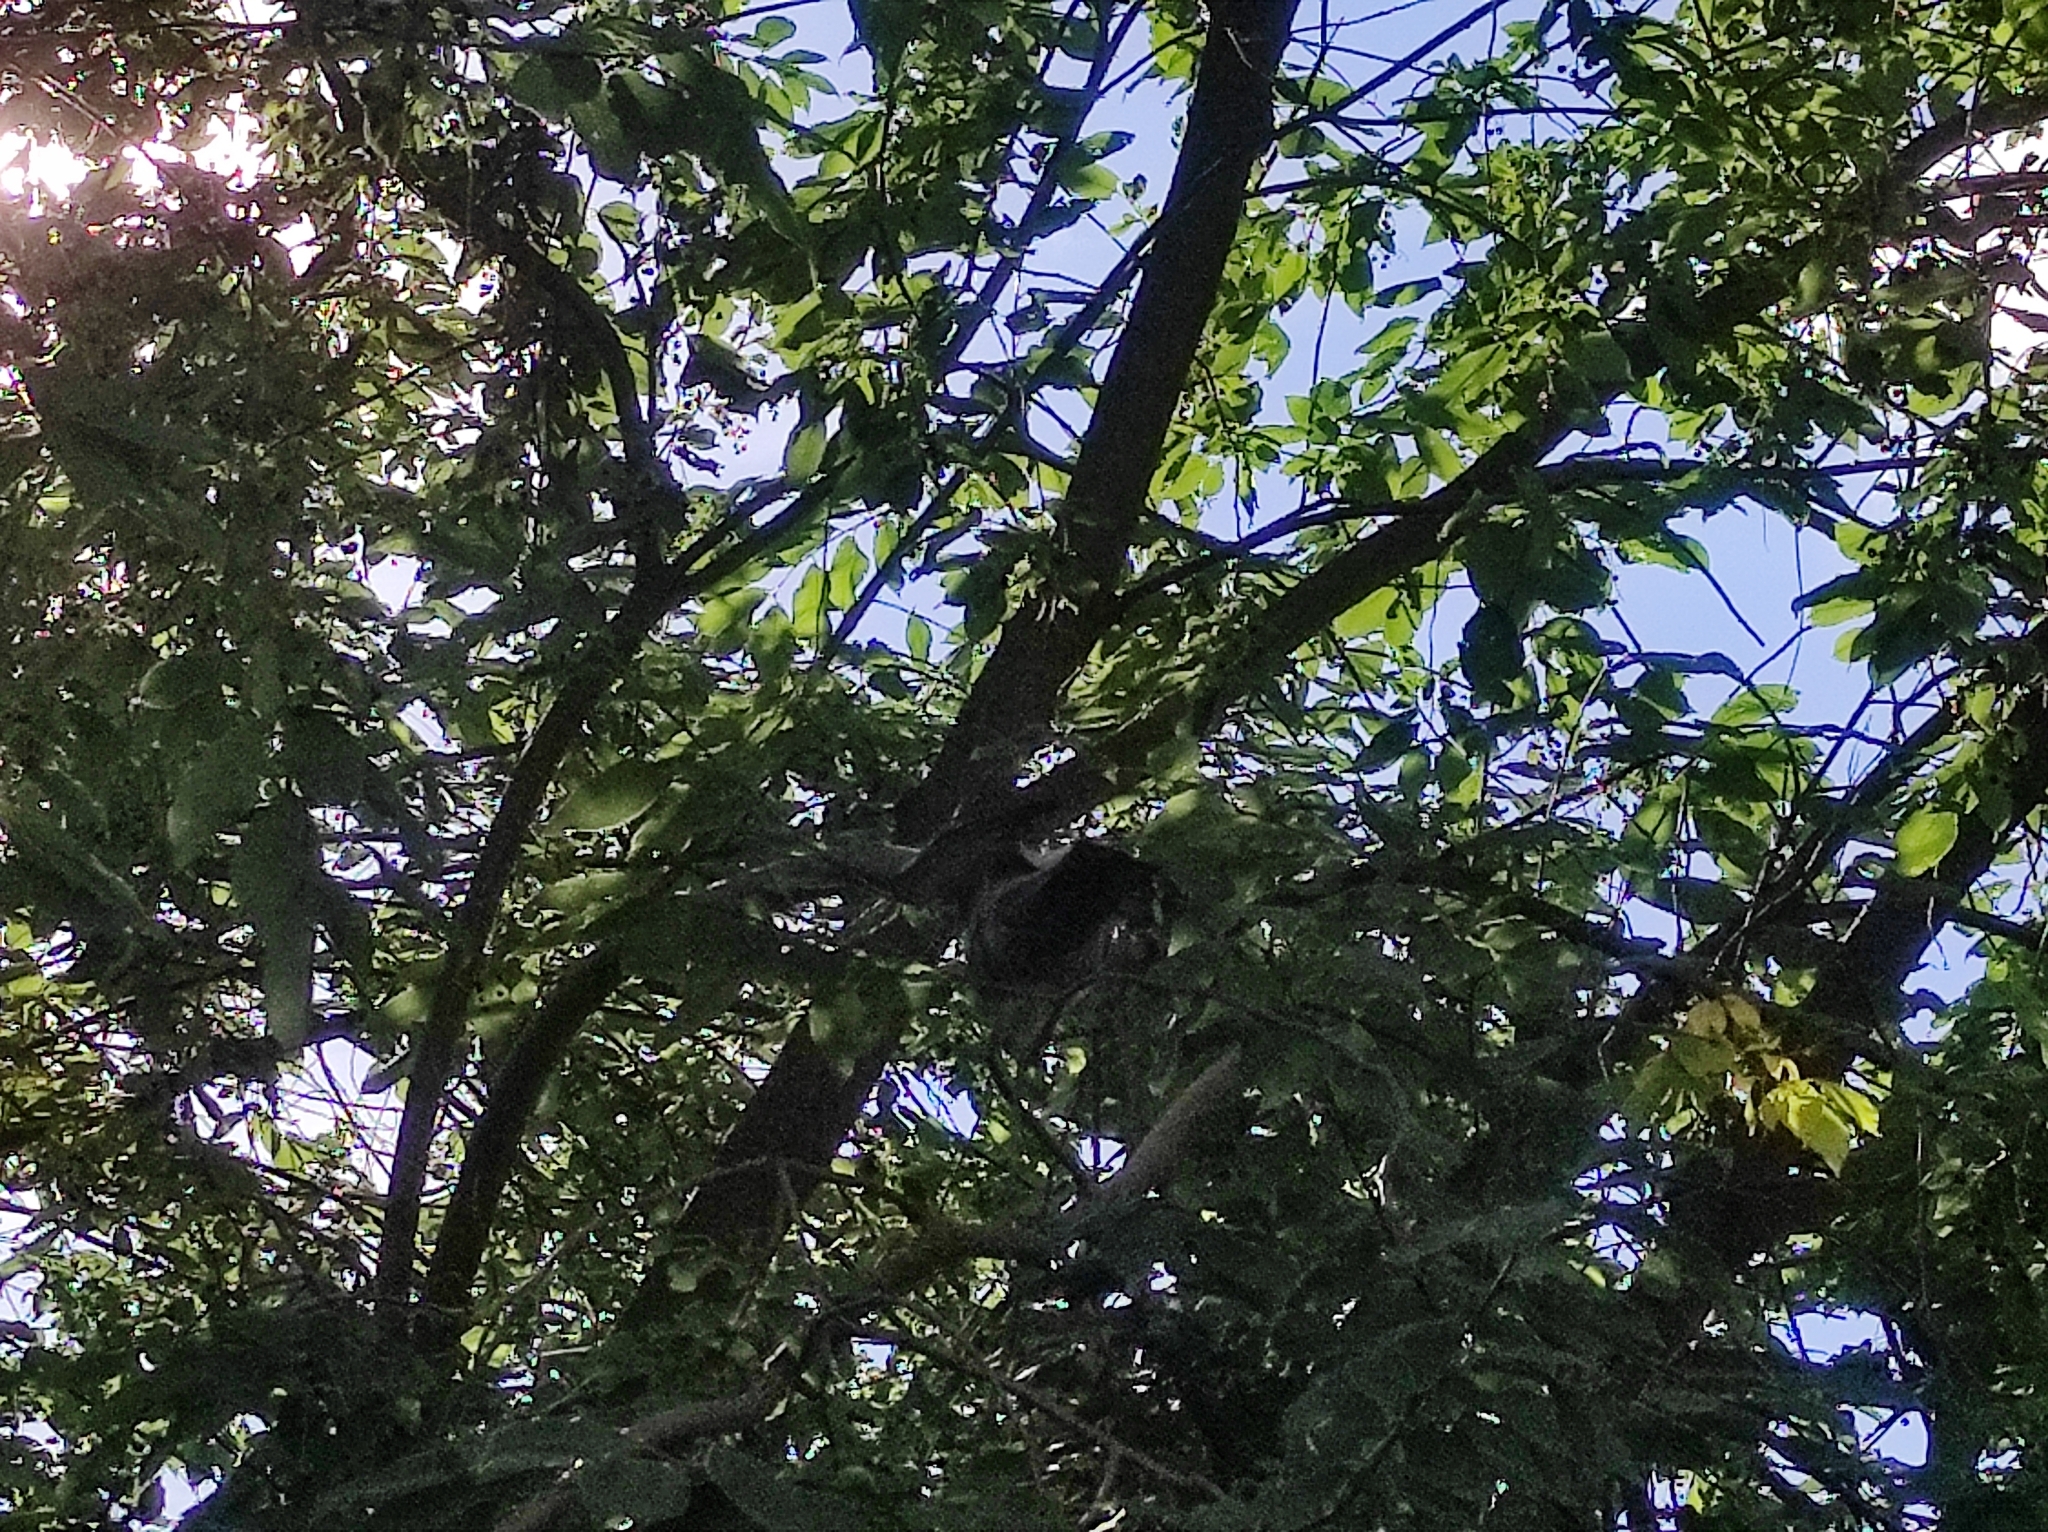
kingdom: Animalia
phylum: Chordata
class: Aves
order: Columbiformes
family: Columbidae
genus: Columba
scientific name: Columba livia
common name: Rock pigeon
